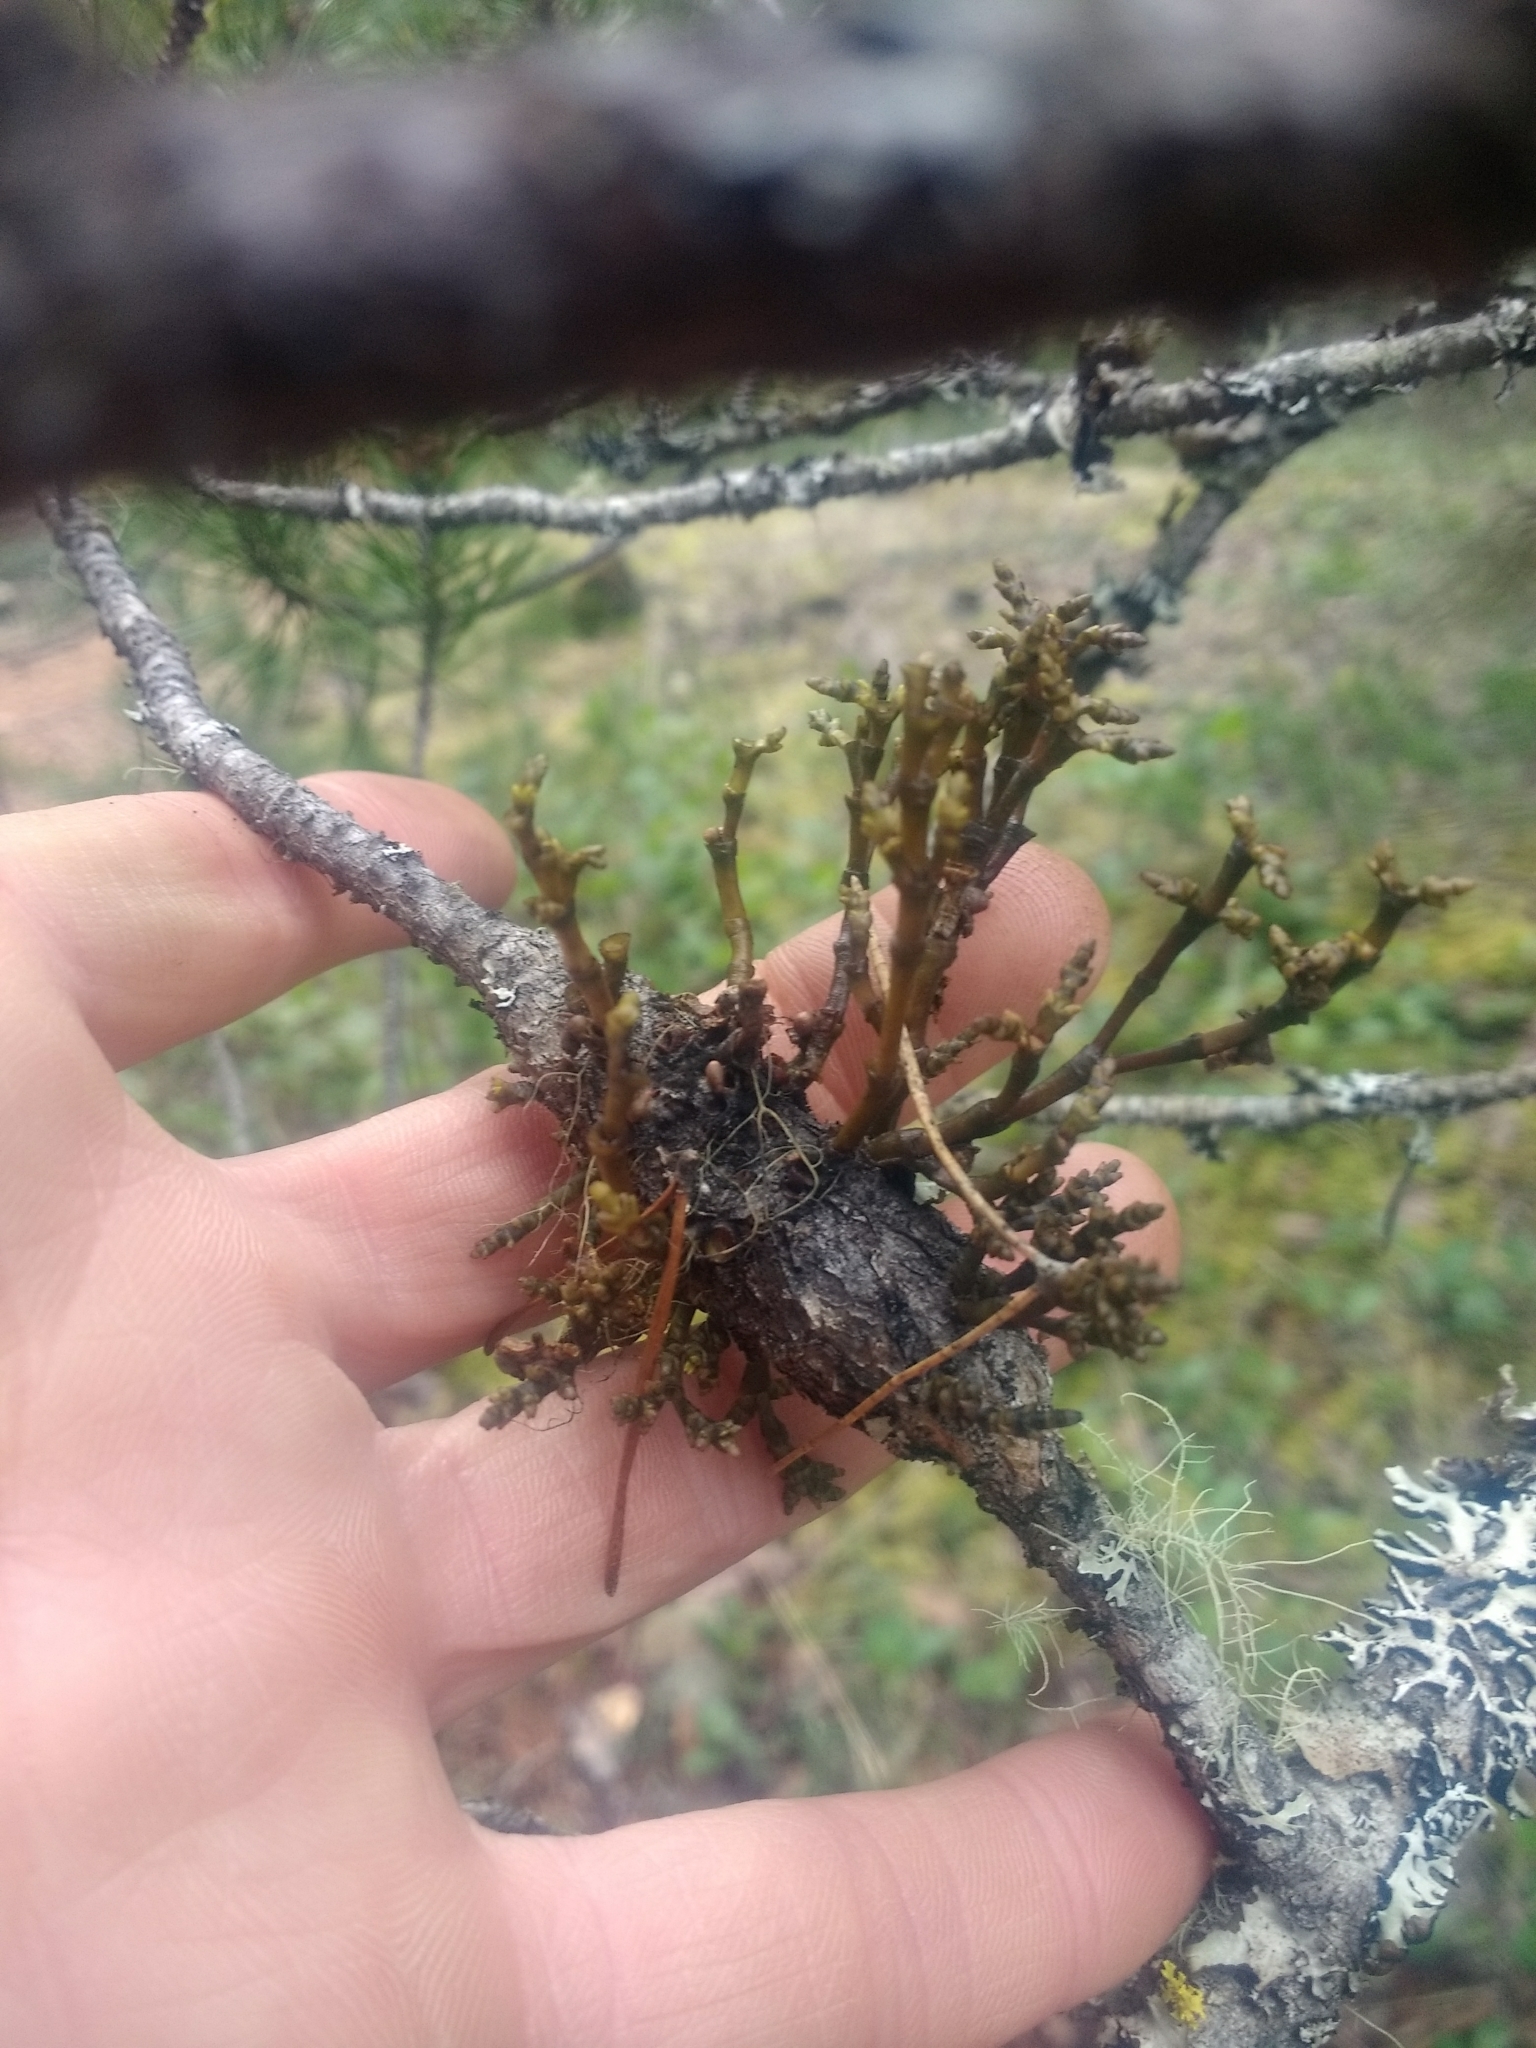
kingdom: Plantae
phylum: Tracheophyta
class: Magnoliopsida
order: Santalales
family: Viscaceae
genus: Arceuthobium
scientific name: Arceuthobium campylopodum
